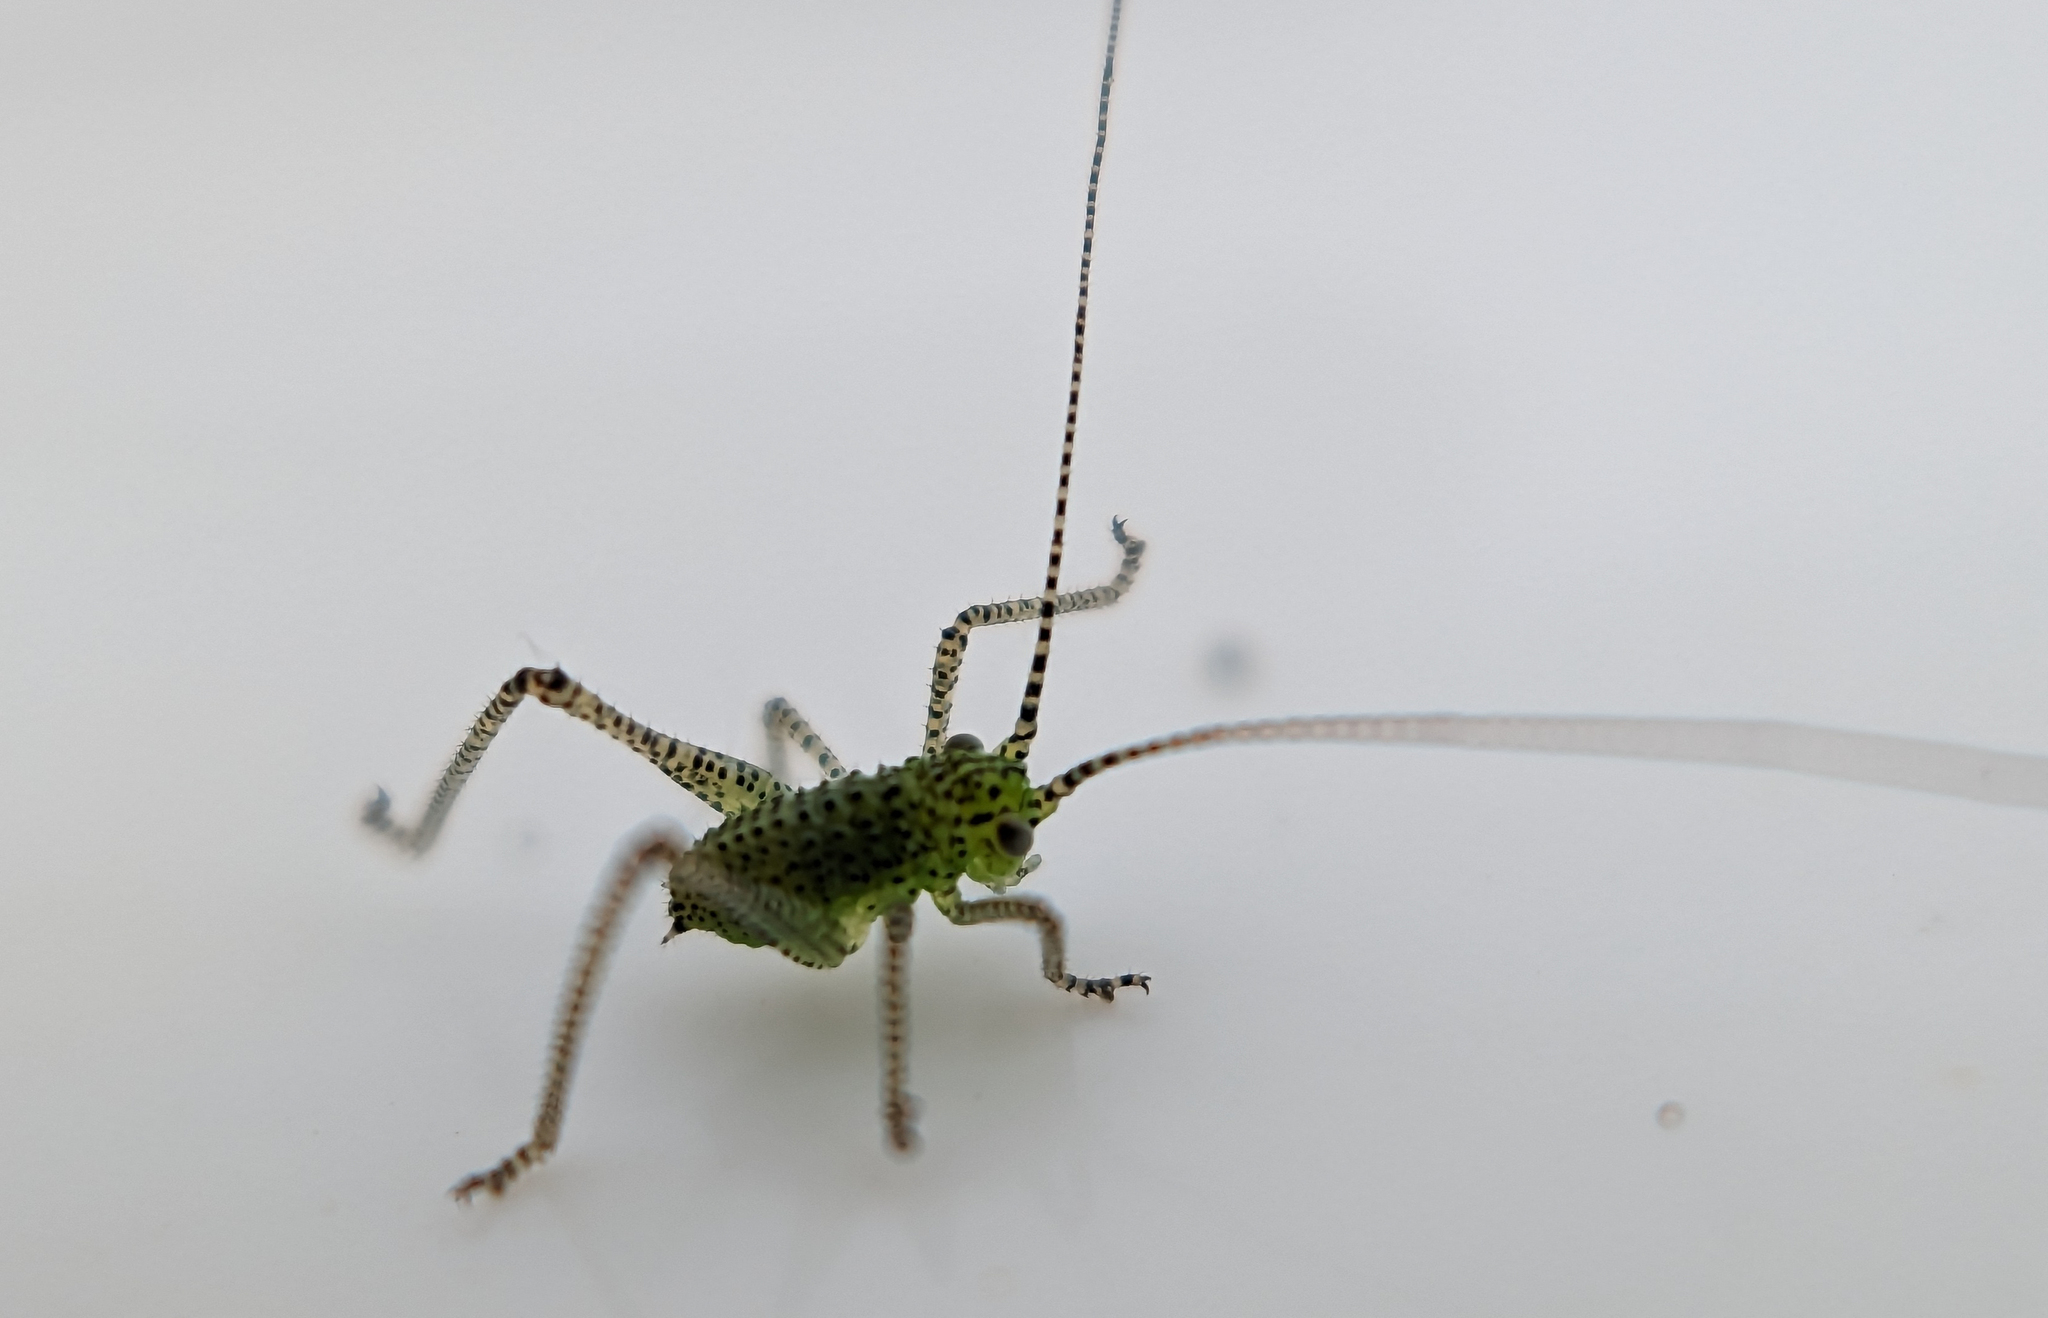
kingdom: Animalia
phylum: Arthropoda
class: Insecta
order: Orthoptera
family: Tettigoniidae
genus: Leptophyes
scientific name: Leptophyes punctatissima
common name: Speckled bush-cricket
